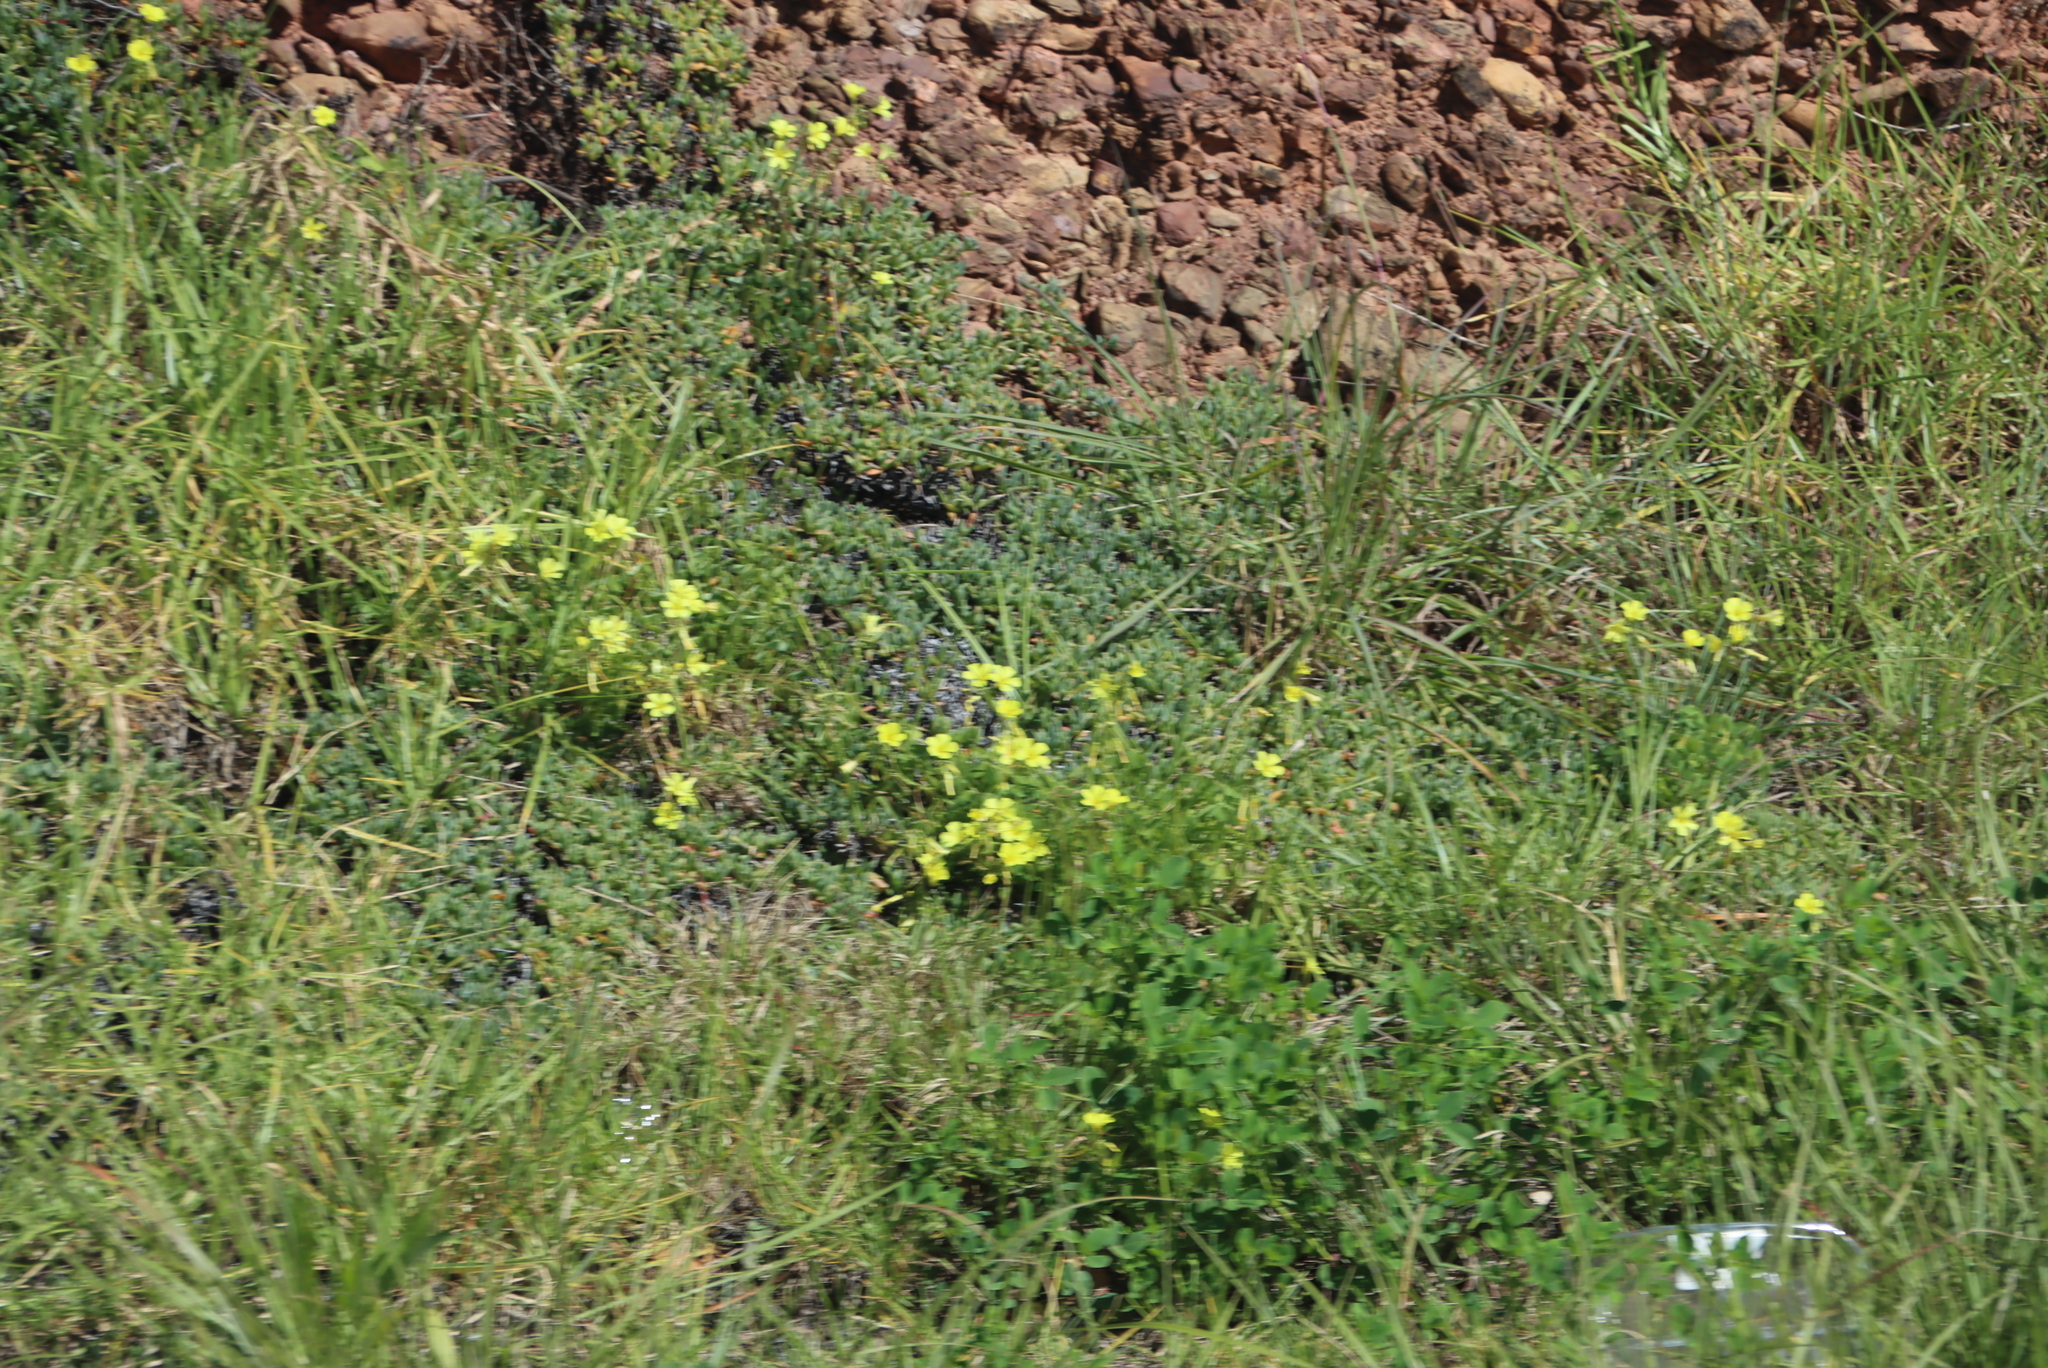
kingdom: Plantae
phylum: Tracheophyta
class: Magnoliopsida
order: Oxalidales
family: Oxalidaceae
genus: Oxalis
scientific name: Oxalis pes-caprae
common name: Bermuda-buttercup
